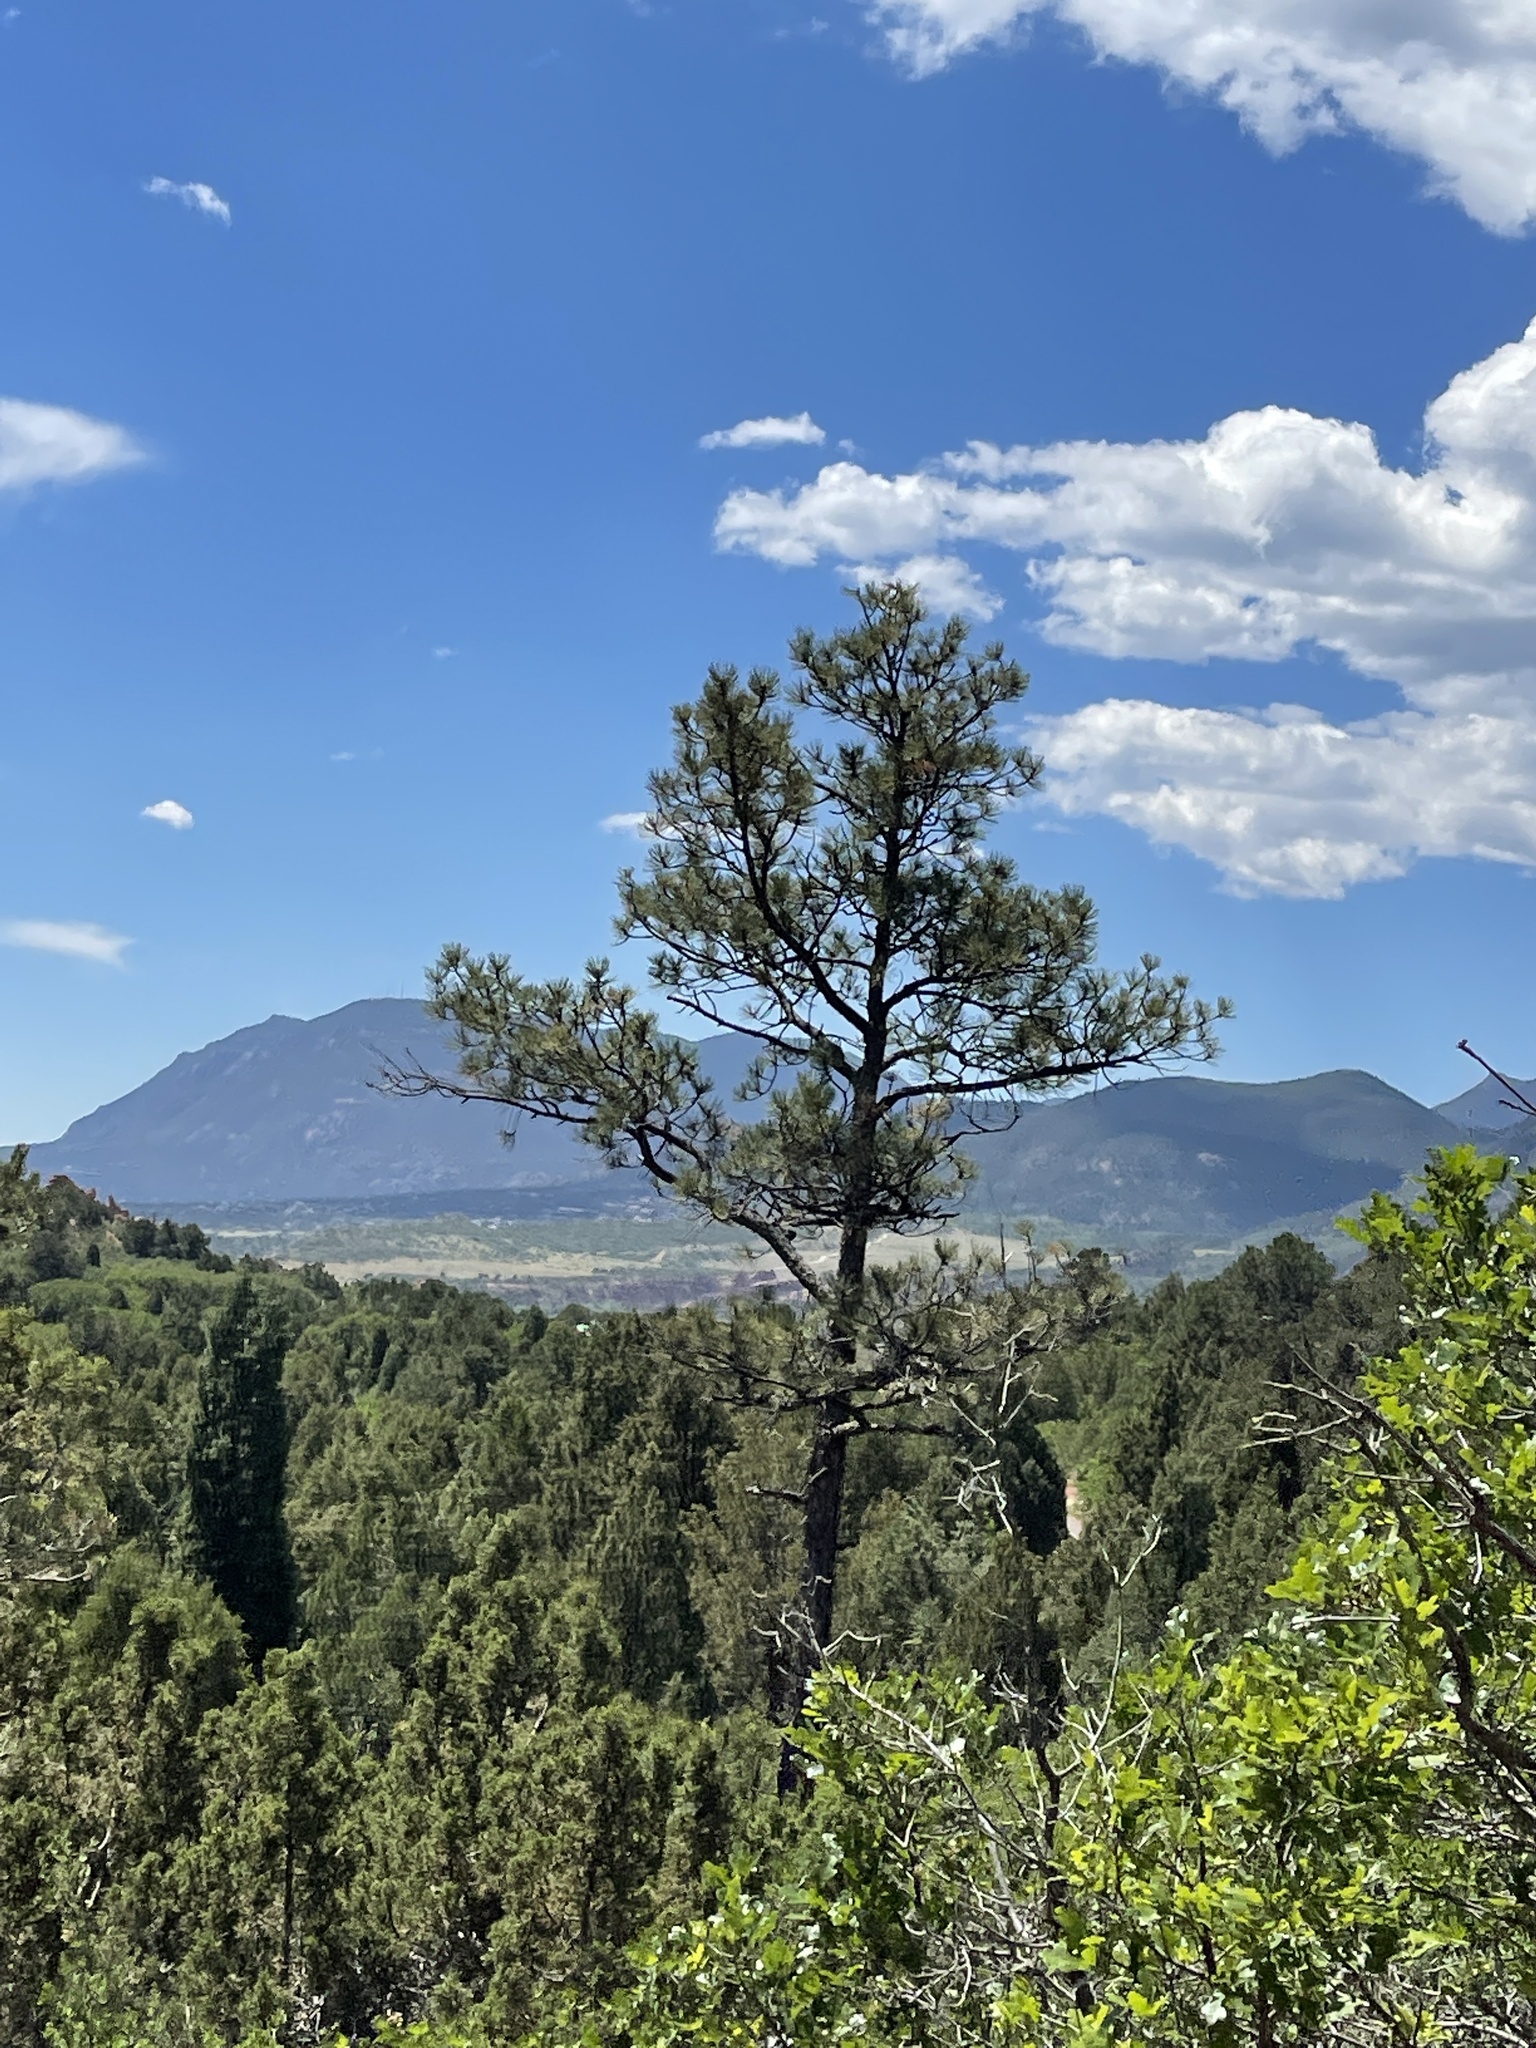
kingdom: Plantae
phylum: Tracheophyta
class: Pinopsida
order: Pinales
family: Pinaceae
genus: Pinus
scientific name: Pinus ponderosa
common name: Western yellow-pine
